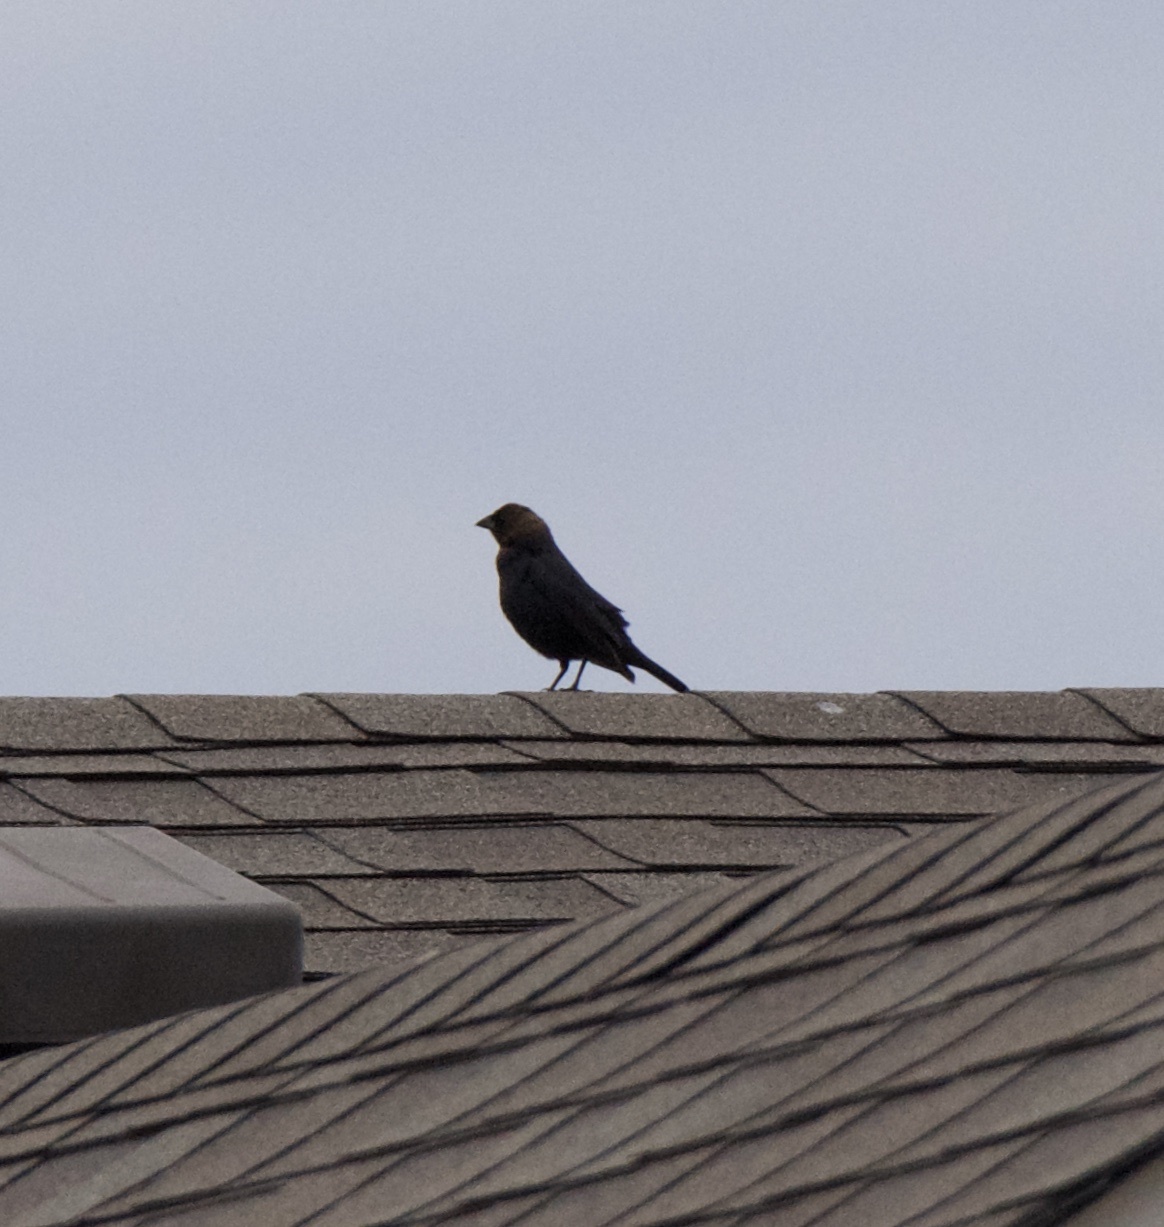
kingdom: Animalia
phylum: Chordata
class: Aves
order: Passeriformes
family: Icteridae
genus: Molothrus
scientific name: Molothrus ater
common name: Brown-headed cowbird
